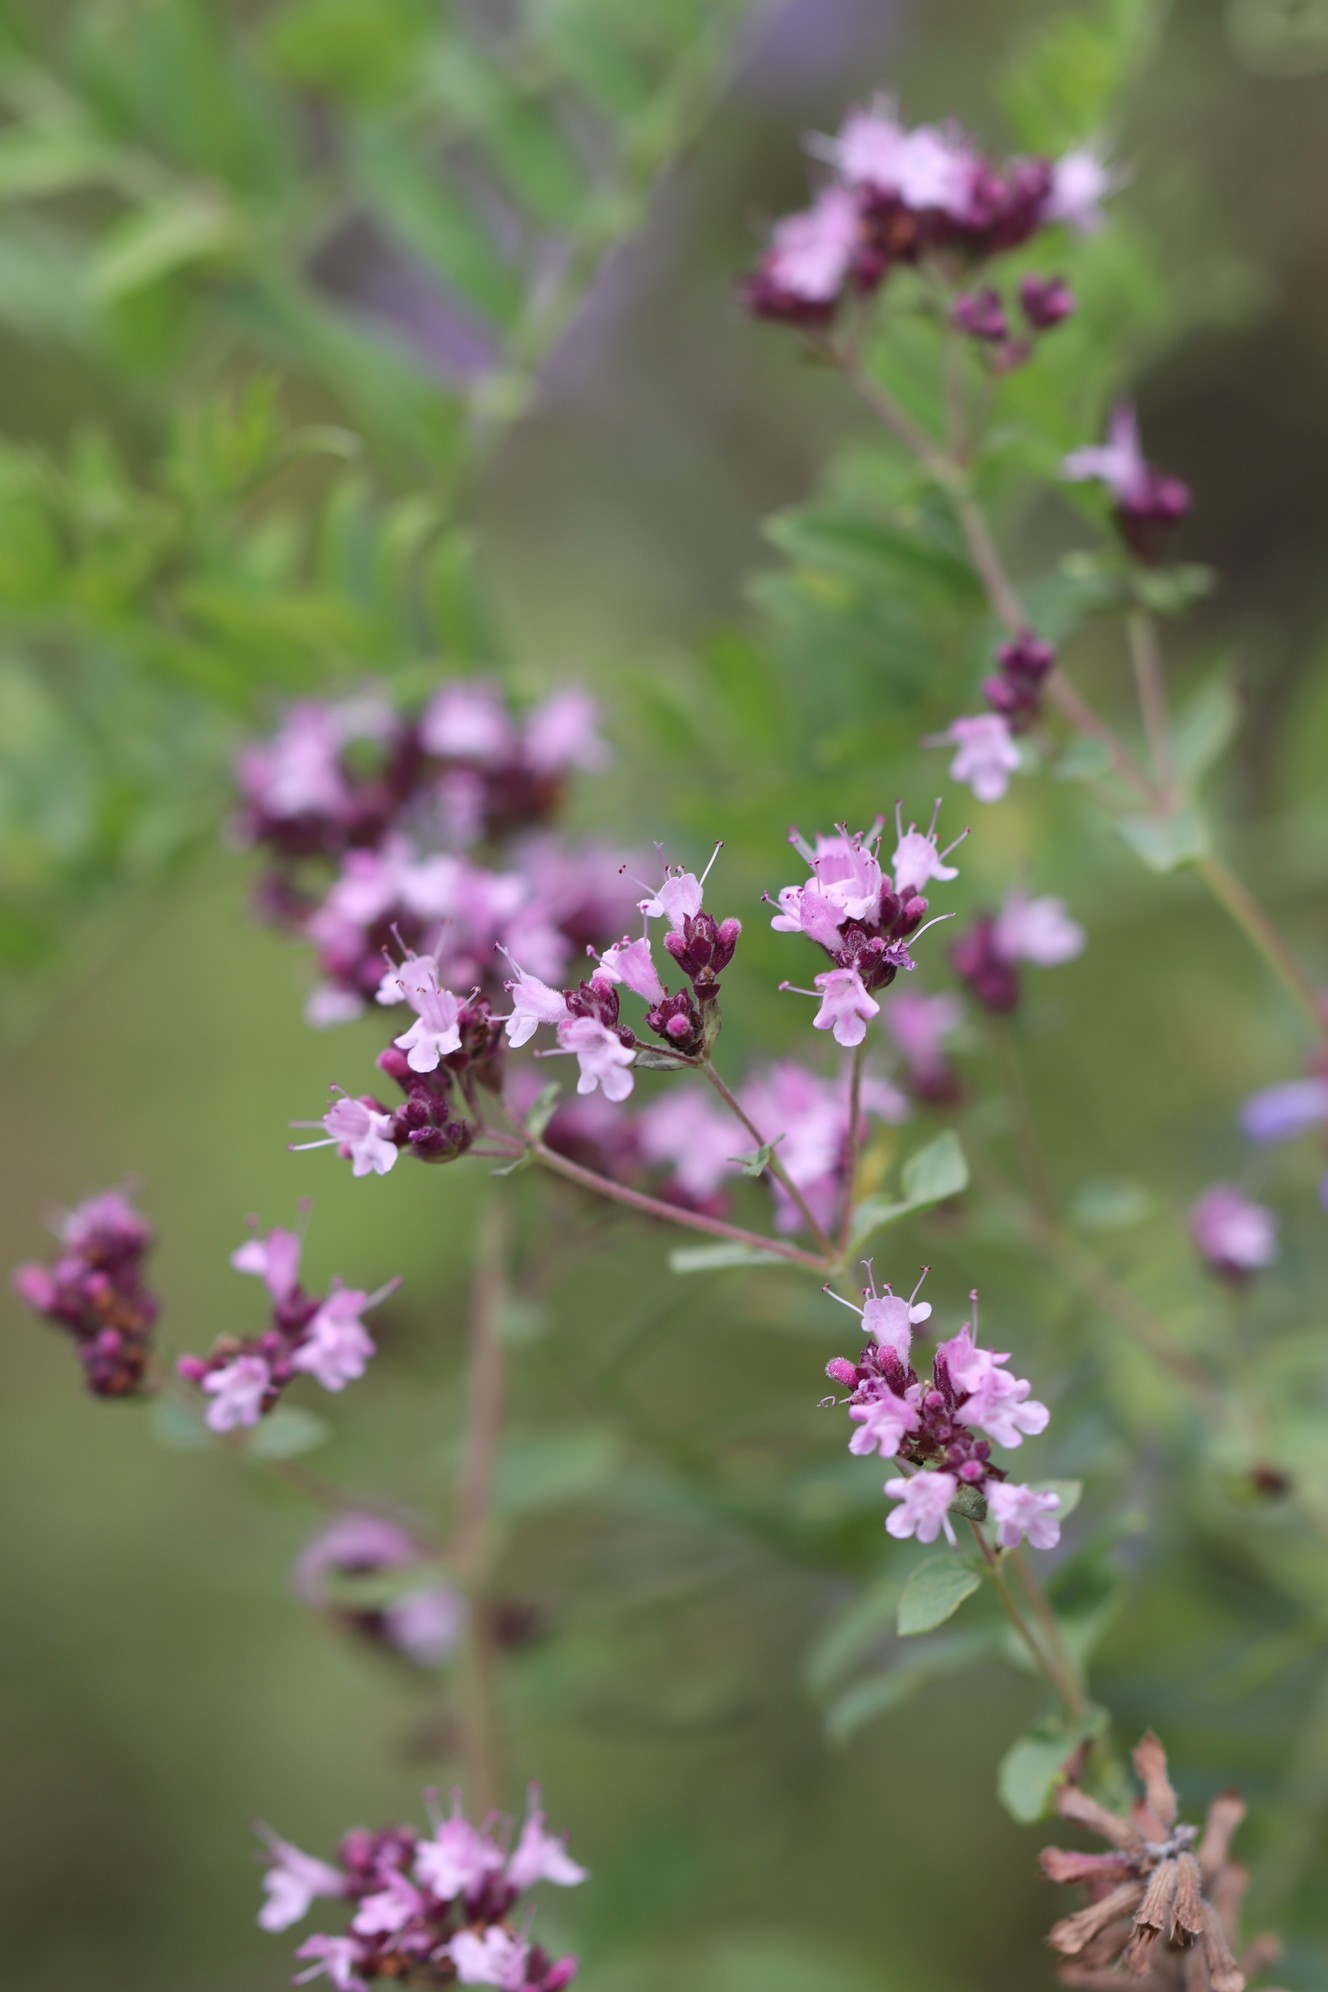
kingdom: Plantae
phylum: Tracheophyta
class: Magnoliopsida
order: Lamiales
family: Lamiaceae
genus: Origanum
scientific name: Origanum vulgare
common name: Wild marjoram
